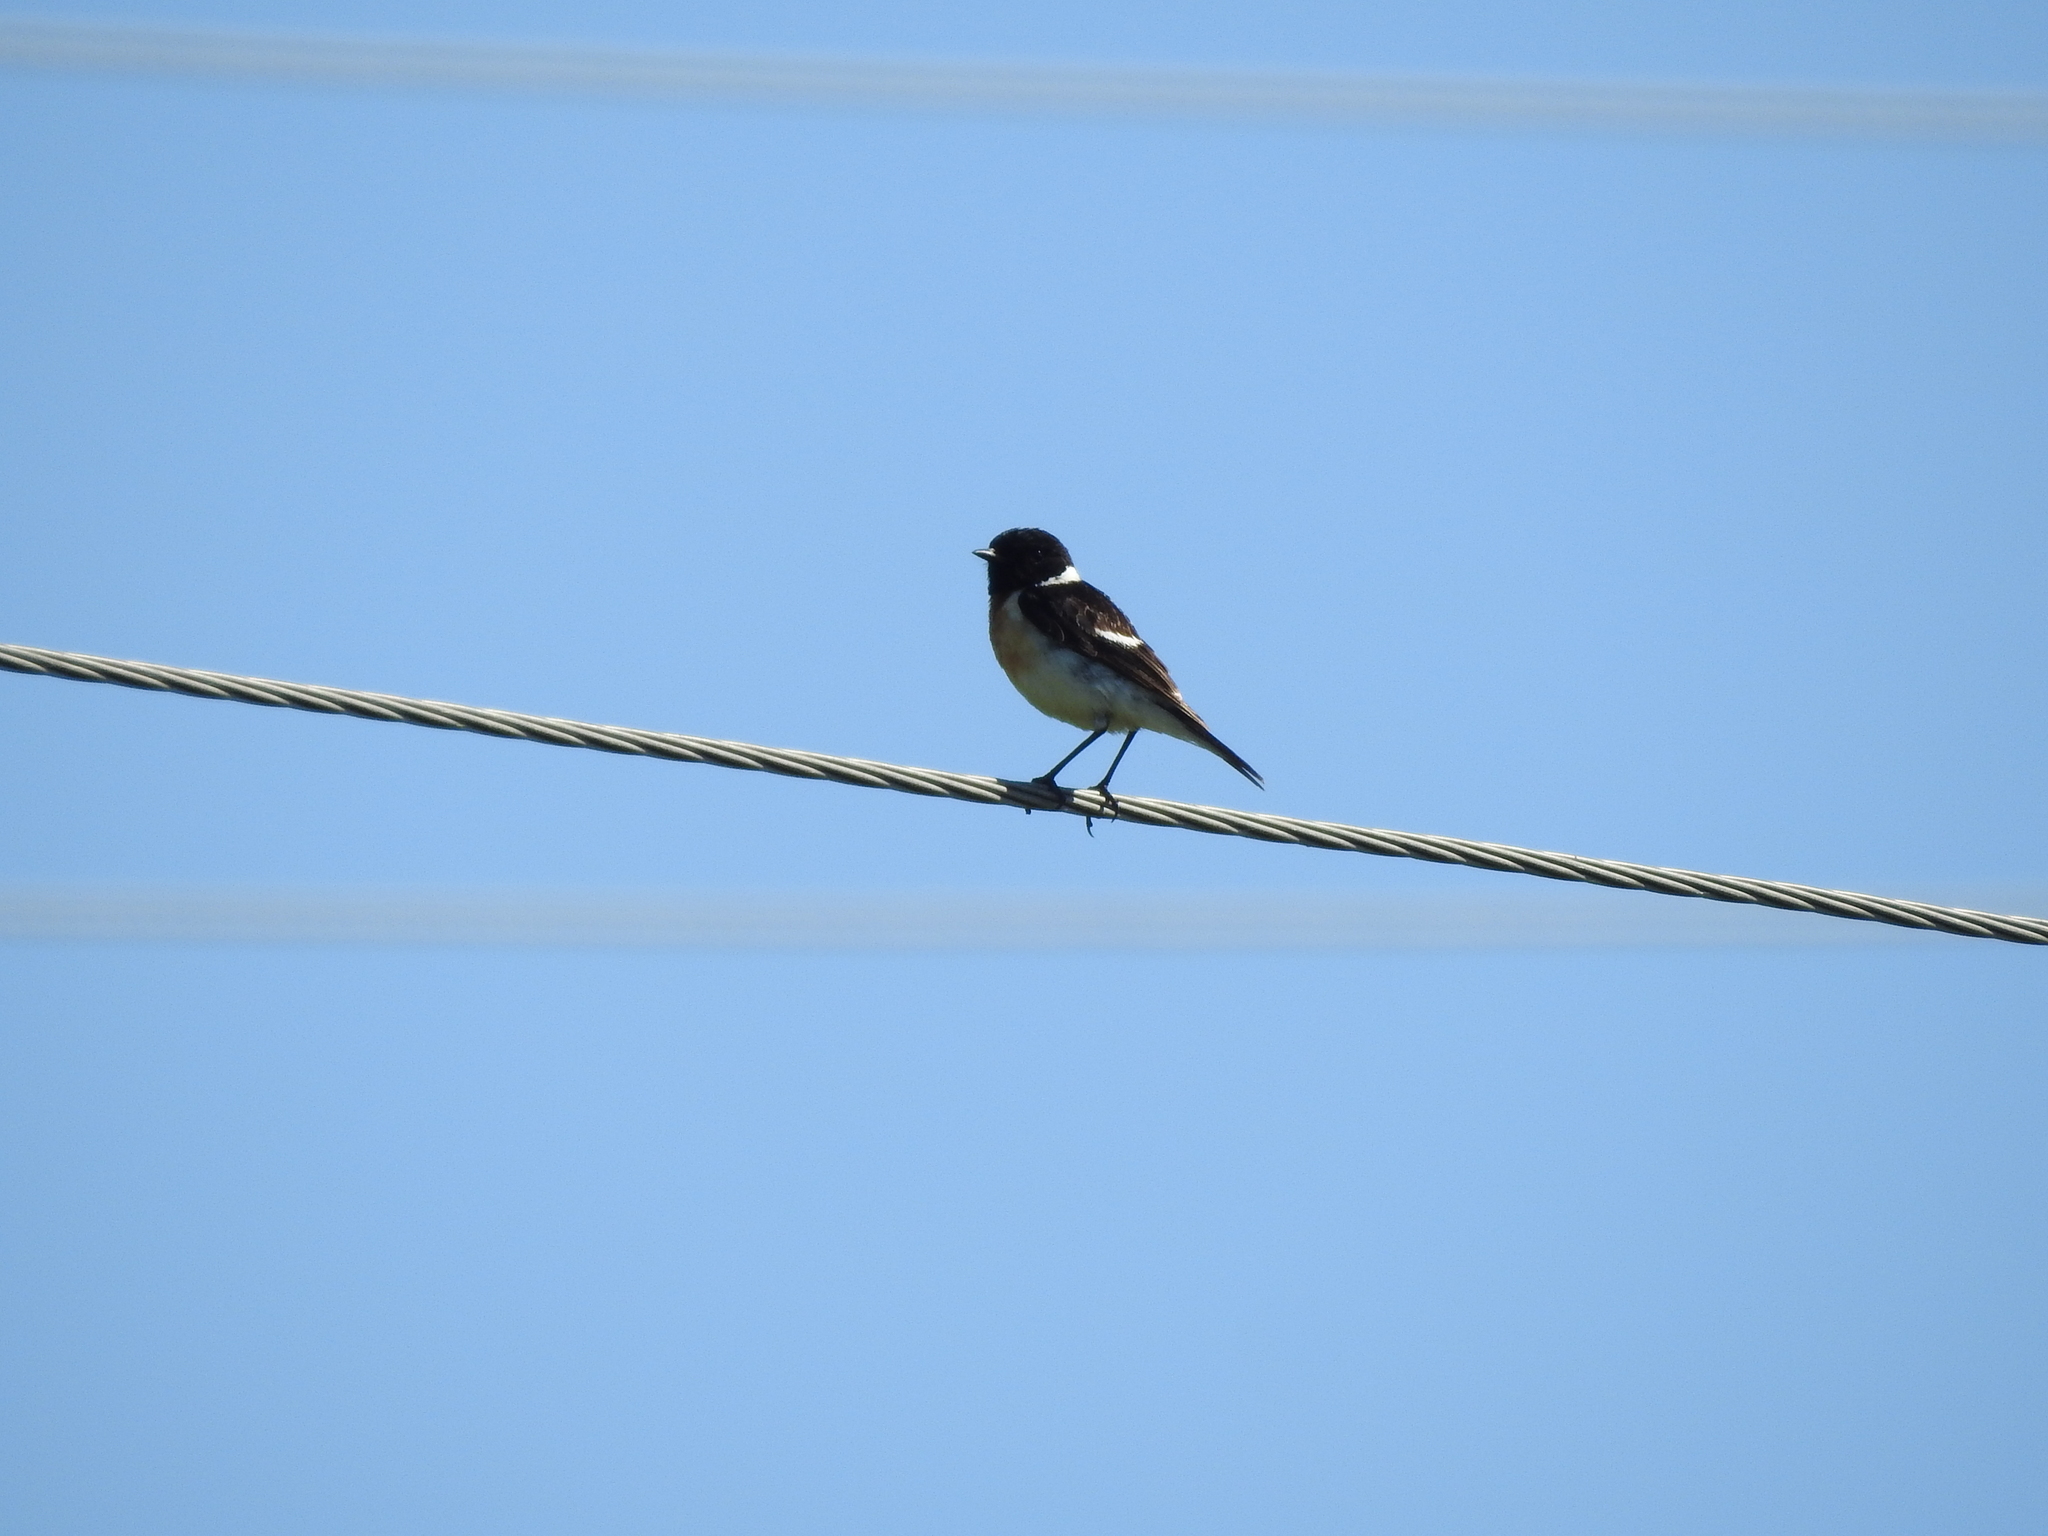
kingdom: Animalia
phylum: Chordata
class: Aves
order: Passeriformes
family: Muscicapidae
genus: Saxicola
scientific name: Saxicola maurus
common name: Siberian stonechat
